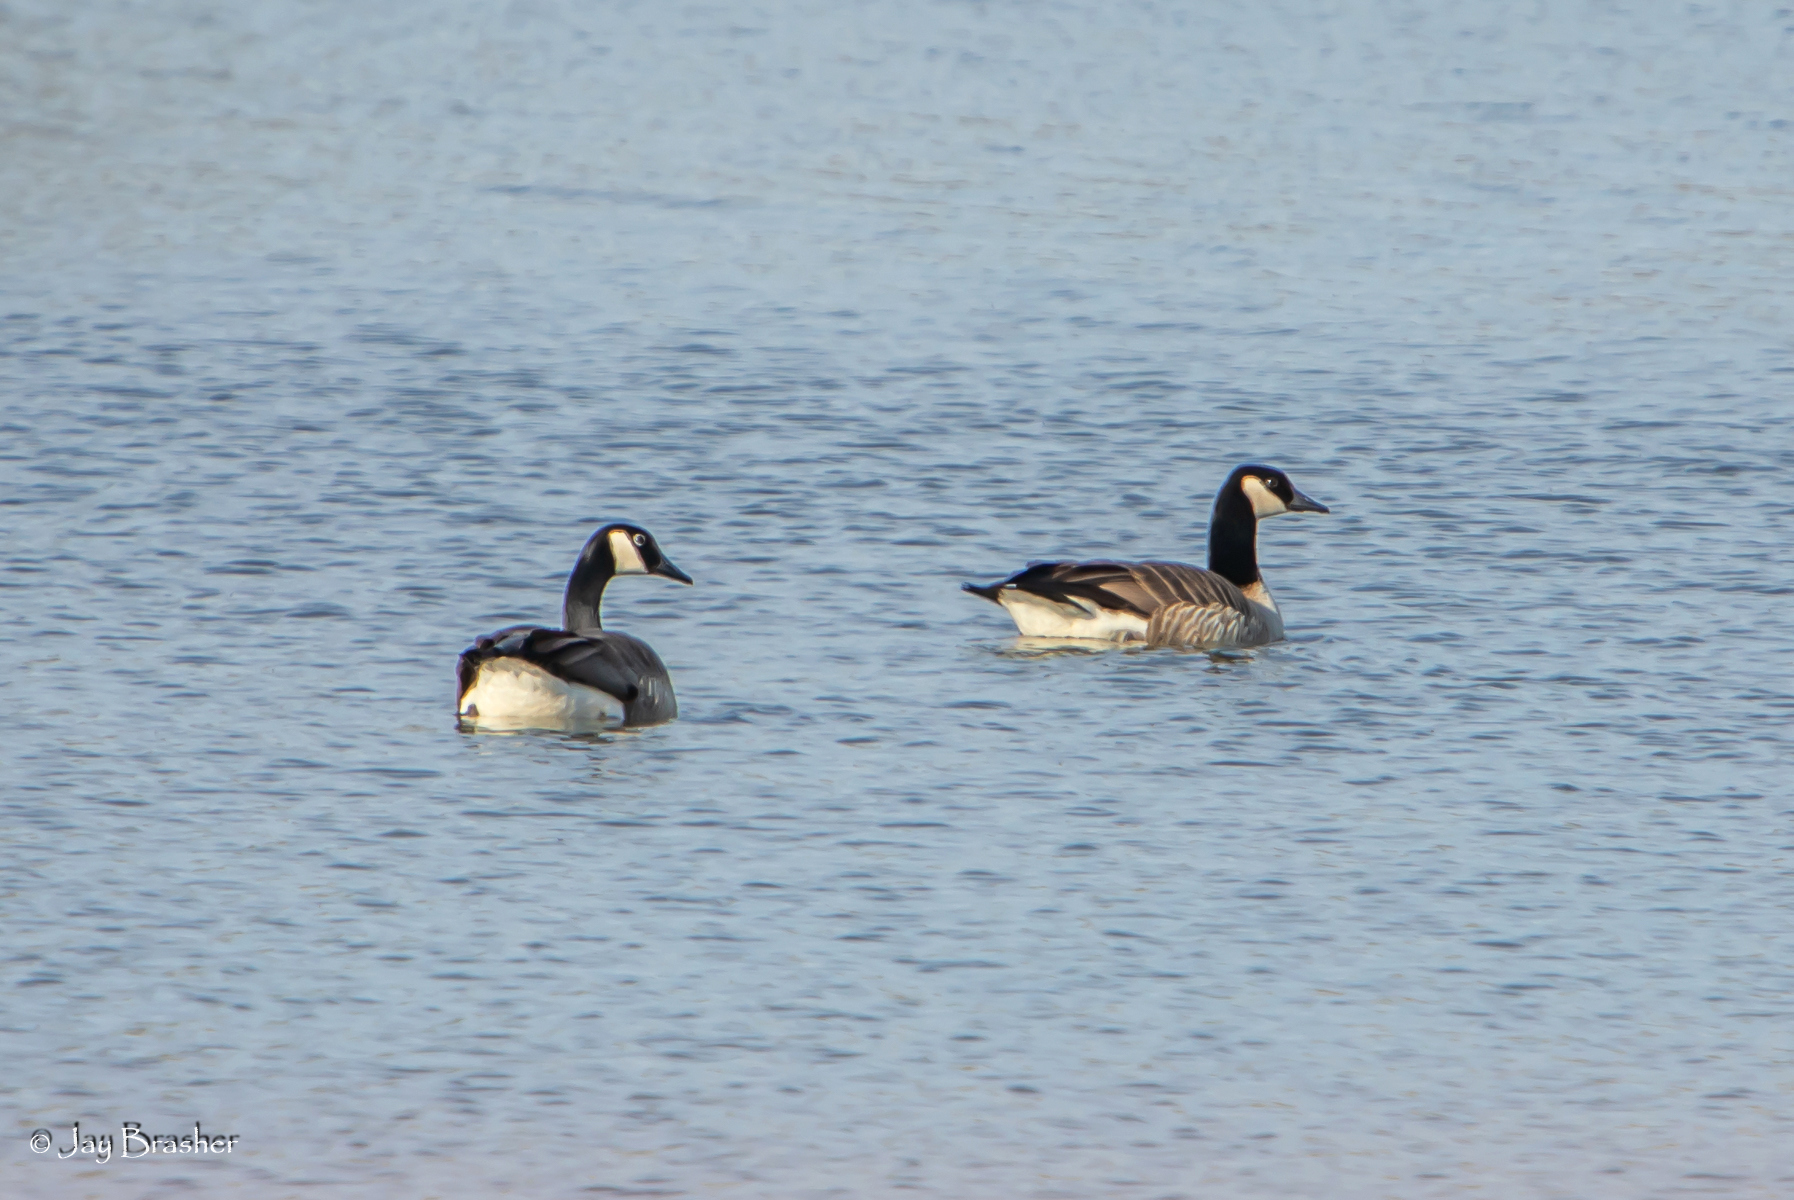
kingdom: Animalia
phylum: Chordata
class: Aves
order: Anseriformes
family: Anatidae
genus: Branta
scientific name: Branta canadensis
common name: Canada goose
